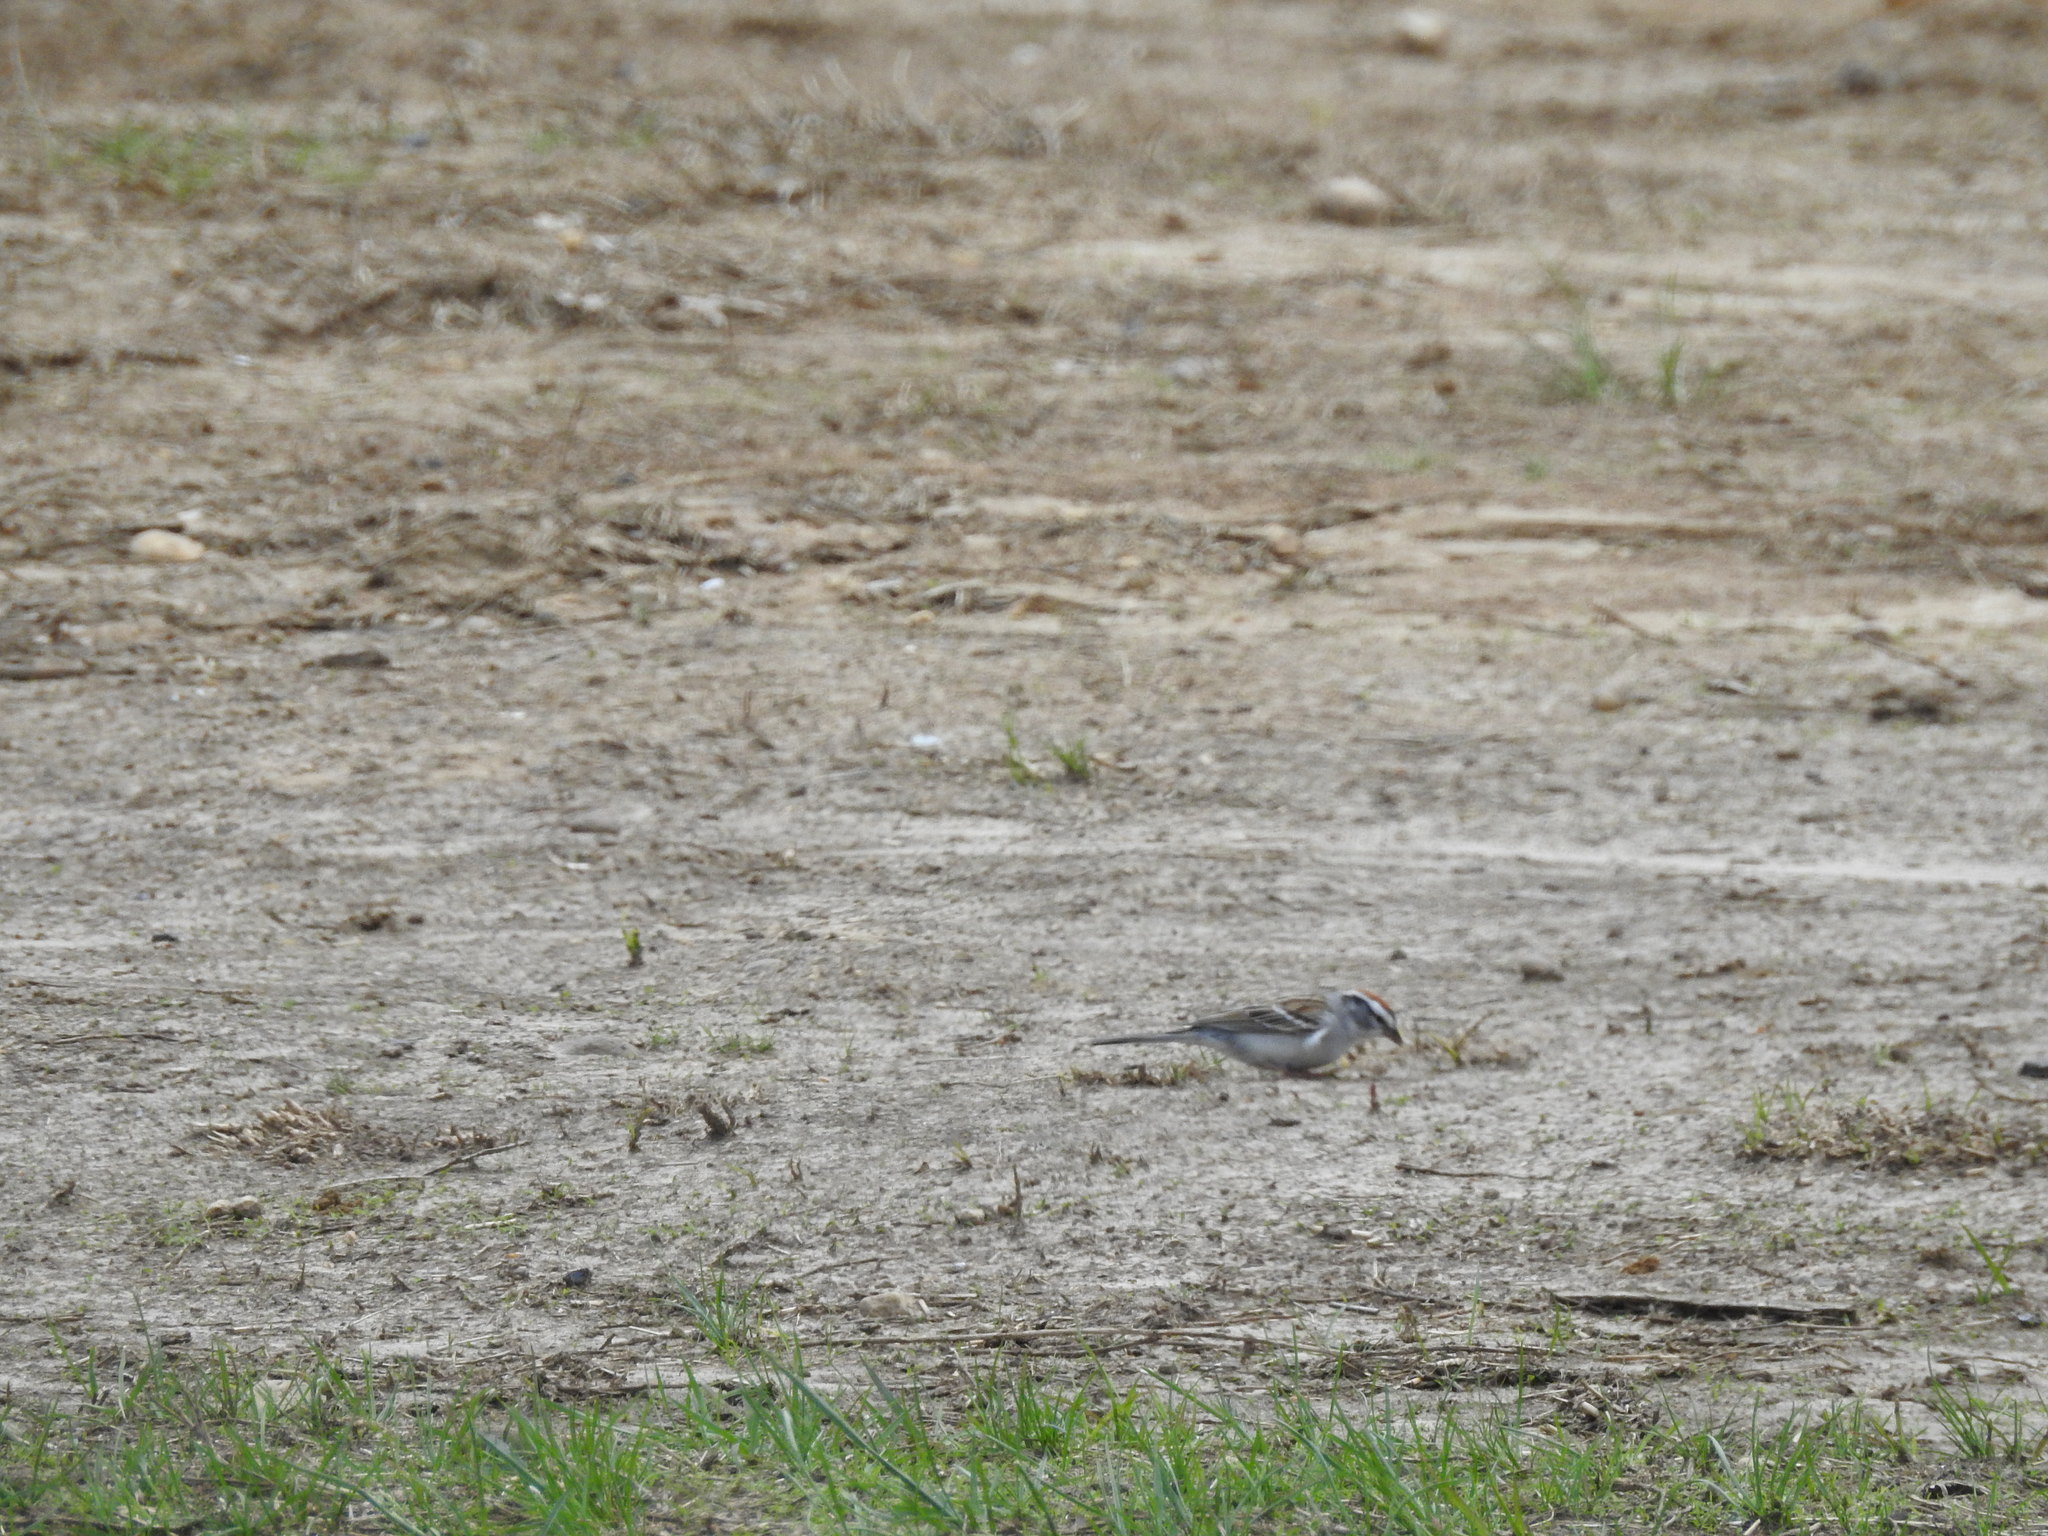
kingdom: Animalia
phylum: Chordata
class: Aves
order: Passeriformes
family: Passerellidae
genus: Spizella
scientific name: Spizella passerina
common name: Chipping sparrow
